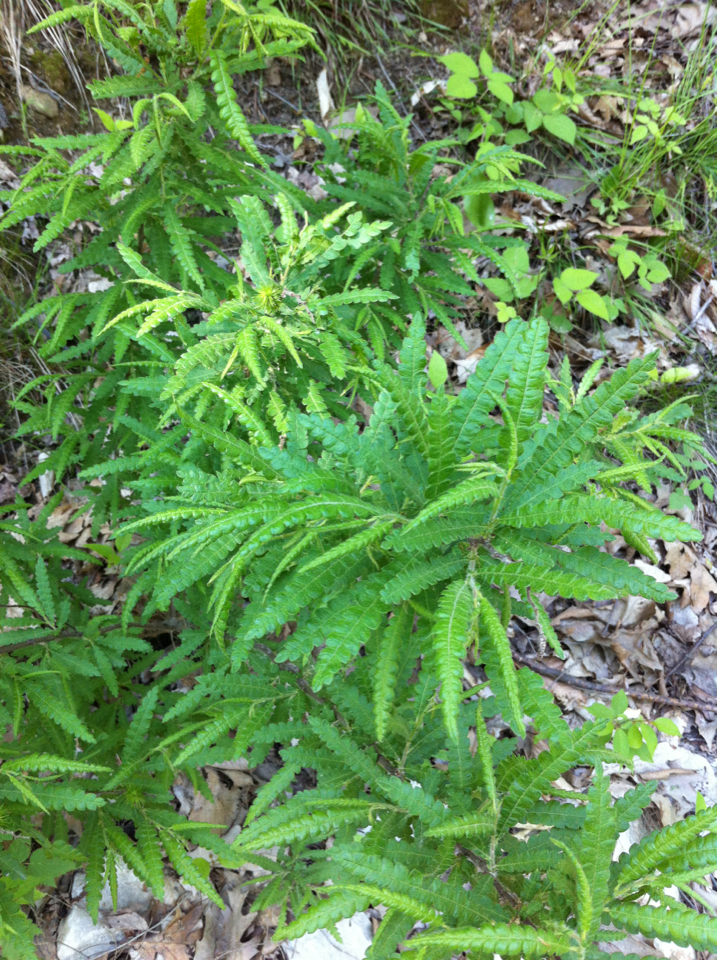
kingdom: Plantae
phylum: Tracheophyta
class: Magnoliopsida
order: Fagales
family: Myricaceae
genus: Comptonia
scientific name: Comptonia peregrina
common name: Sweet-fern
